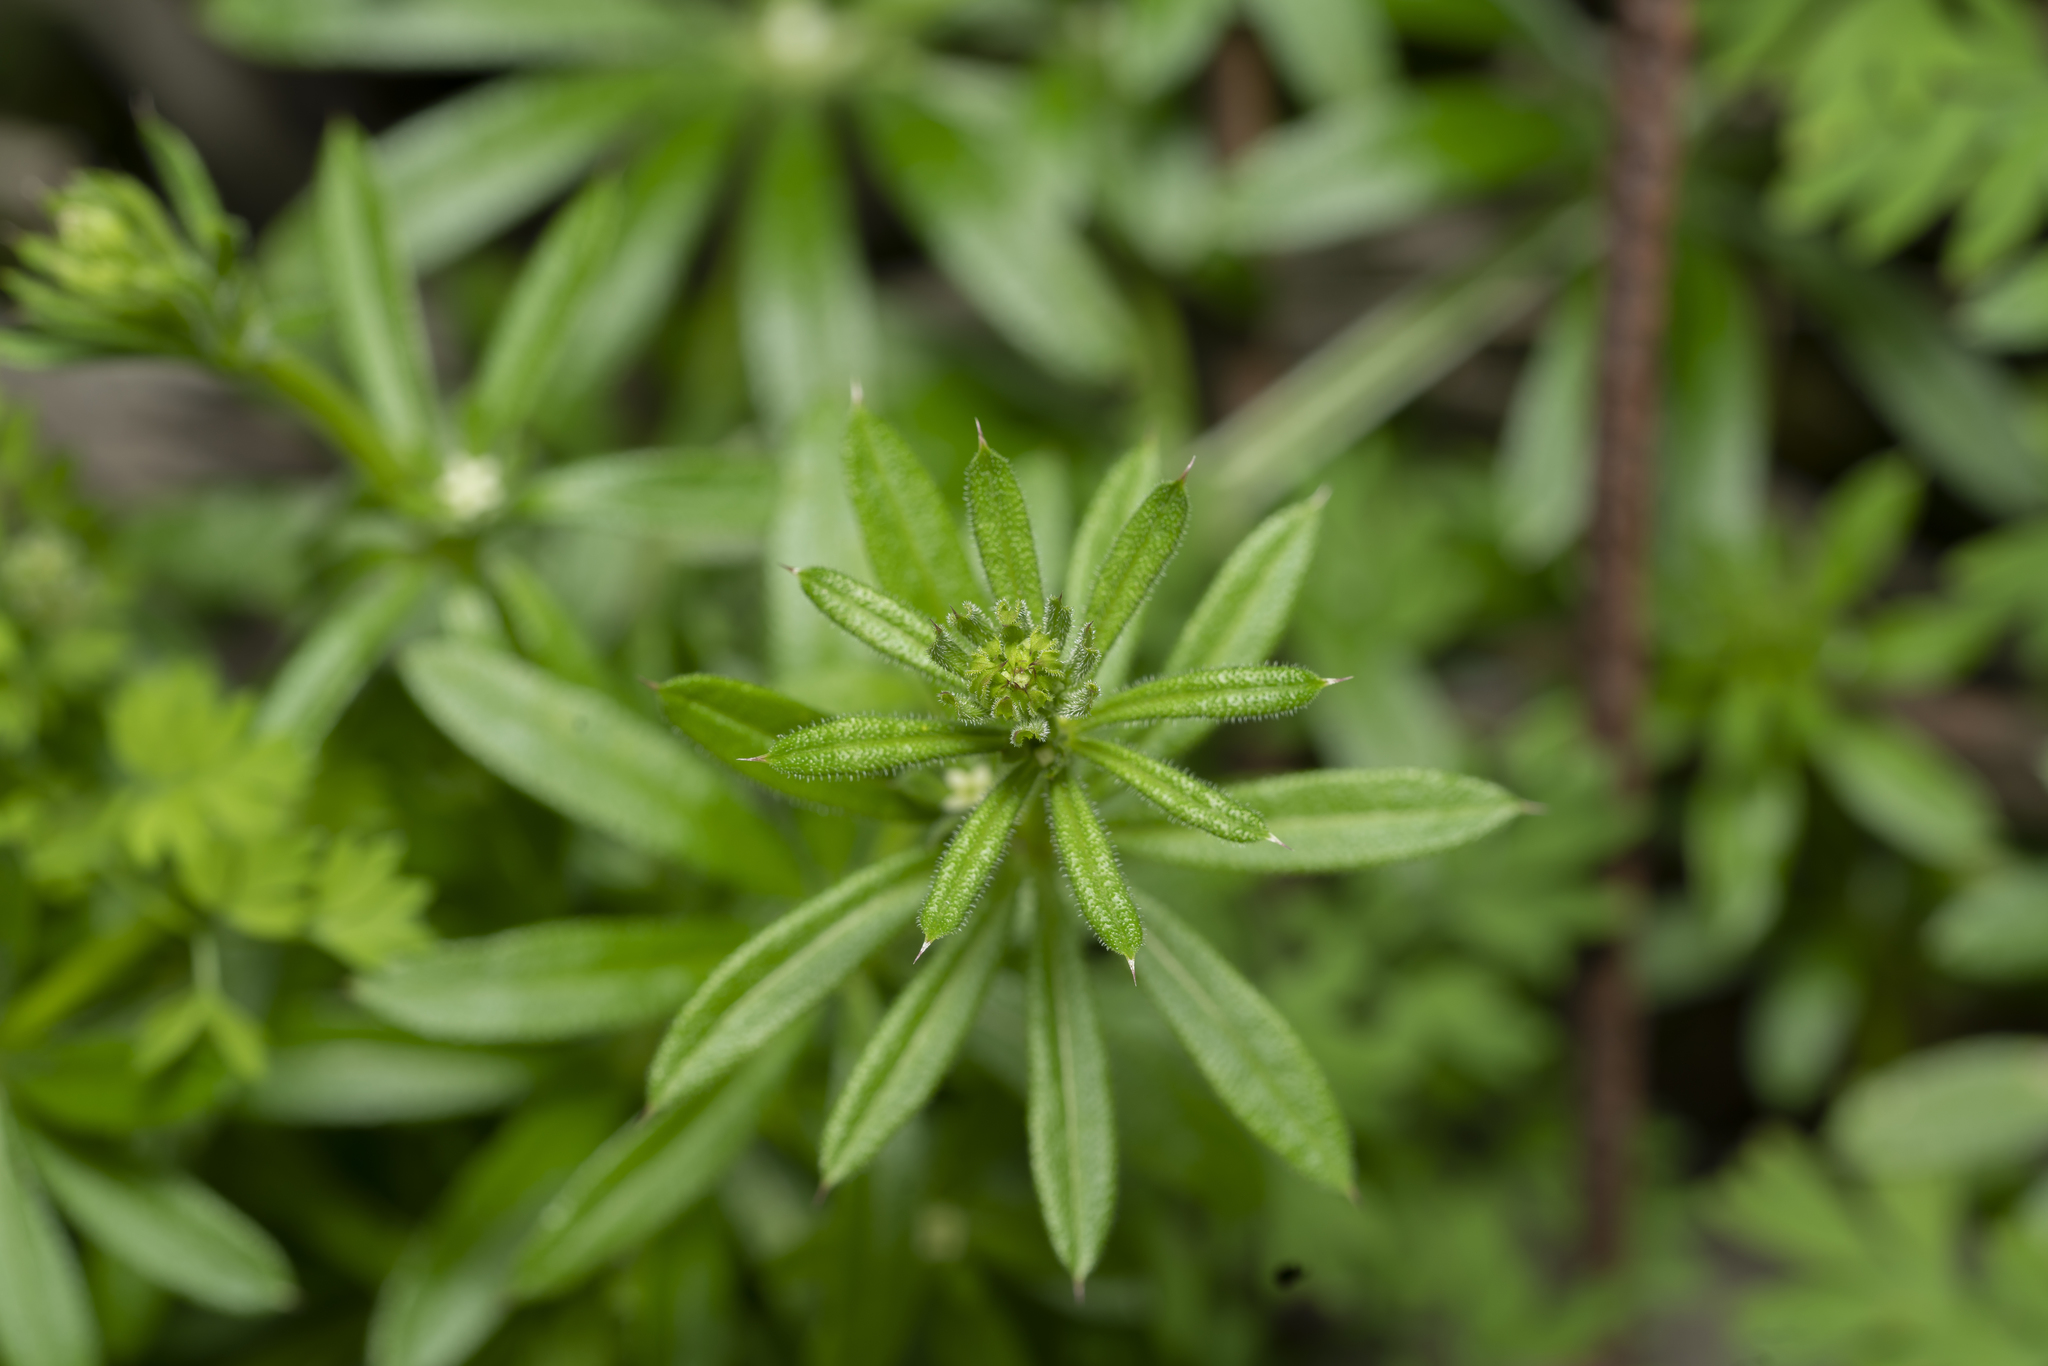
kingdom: Plantae
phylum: Tracheophyta
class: Magnoliopsida
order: Gentianales
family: Rubiaceae
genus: Galium
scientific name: Galium aparine
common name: Cleavers
